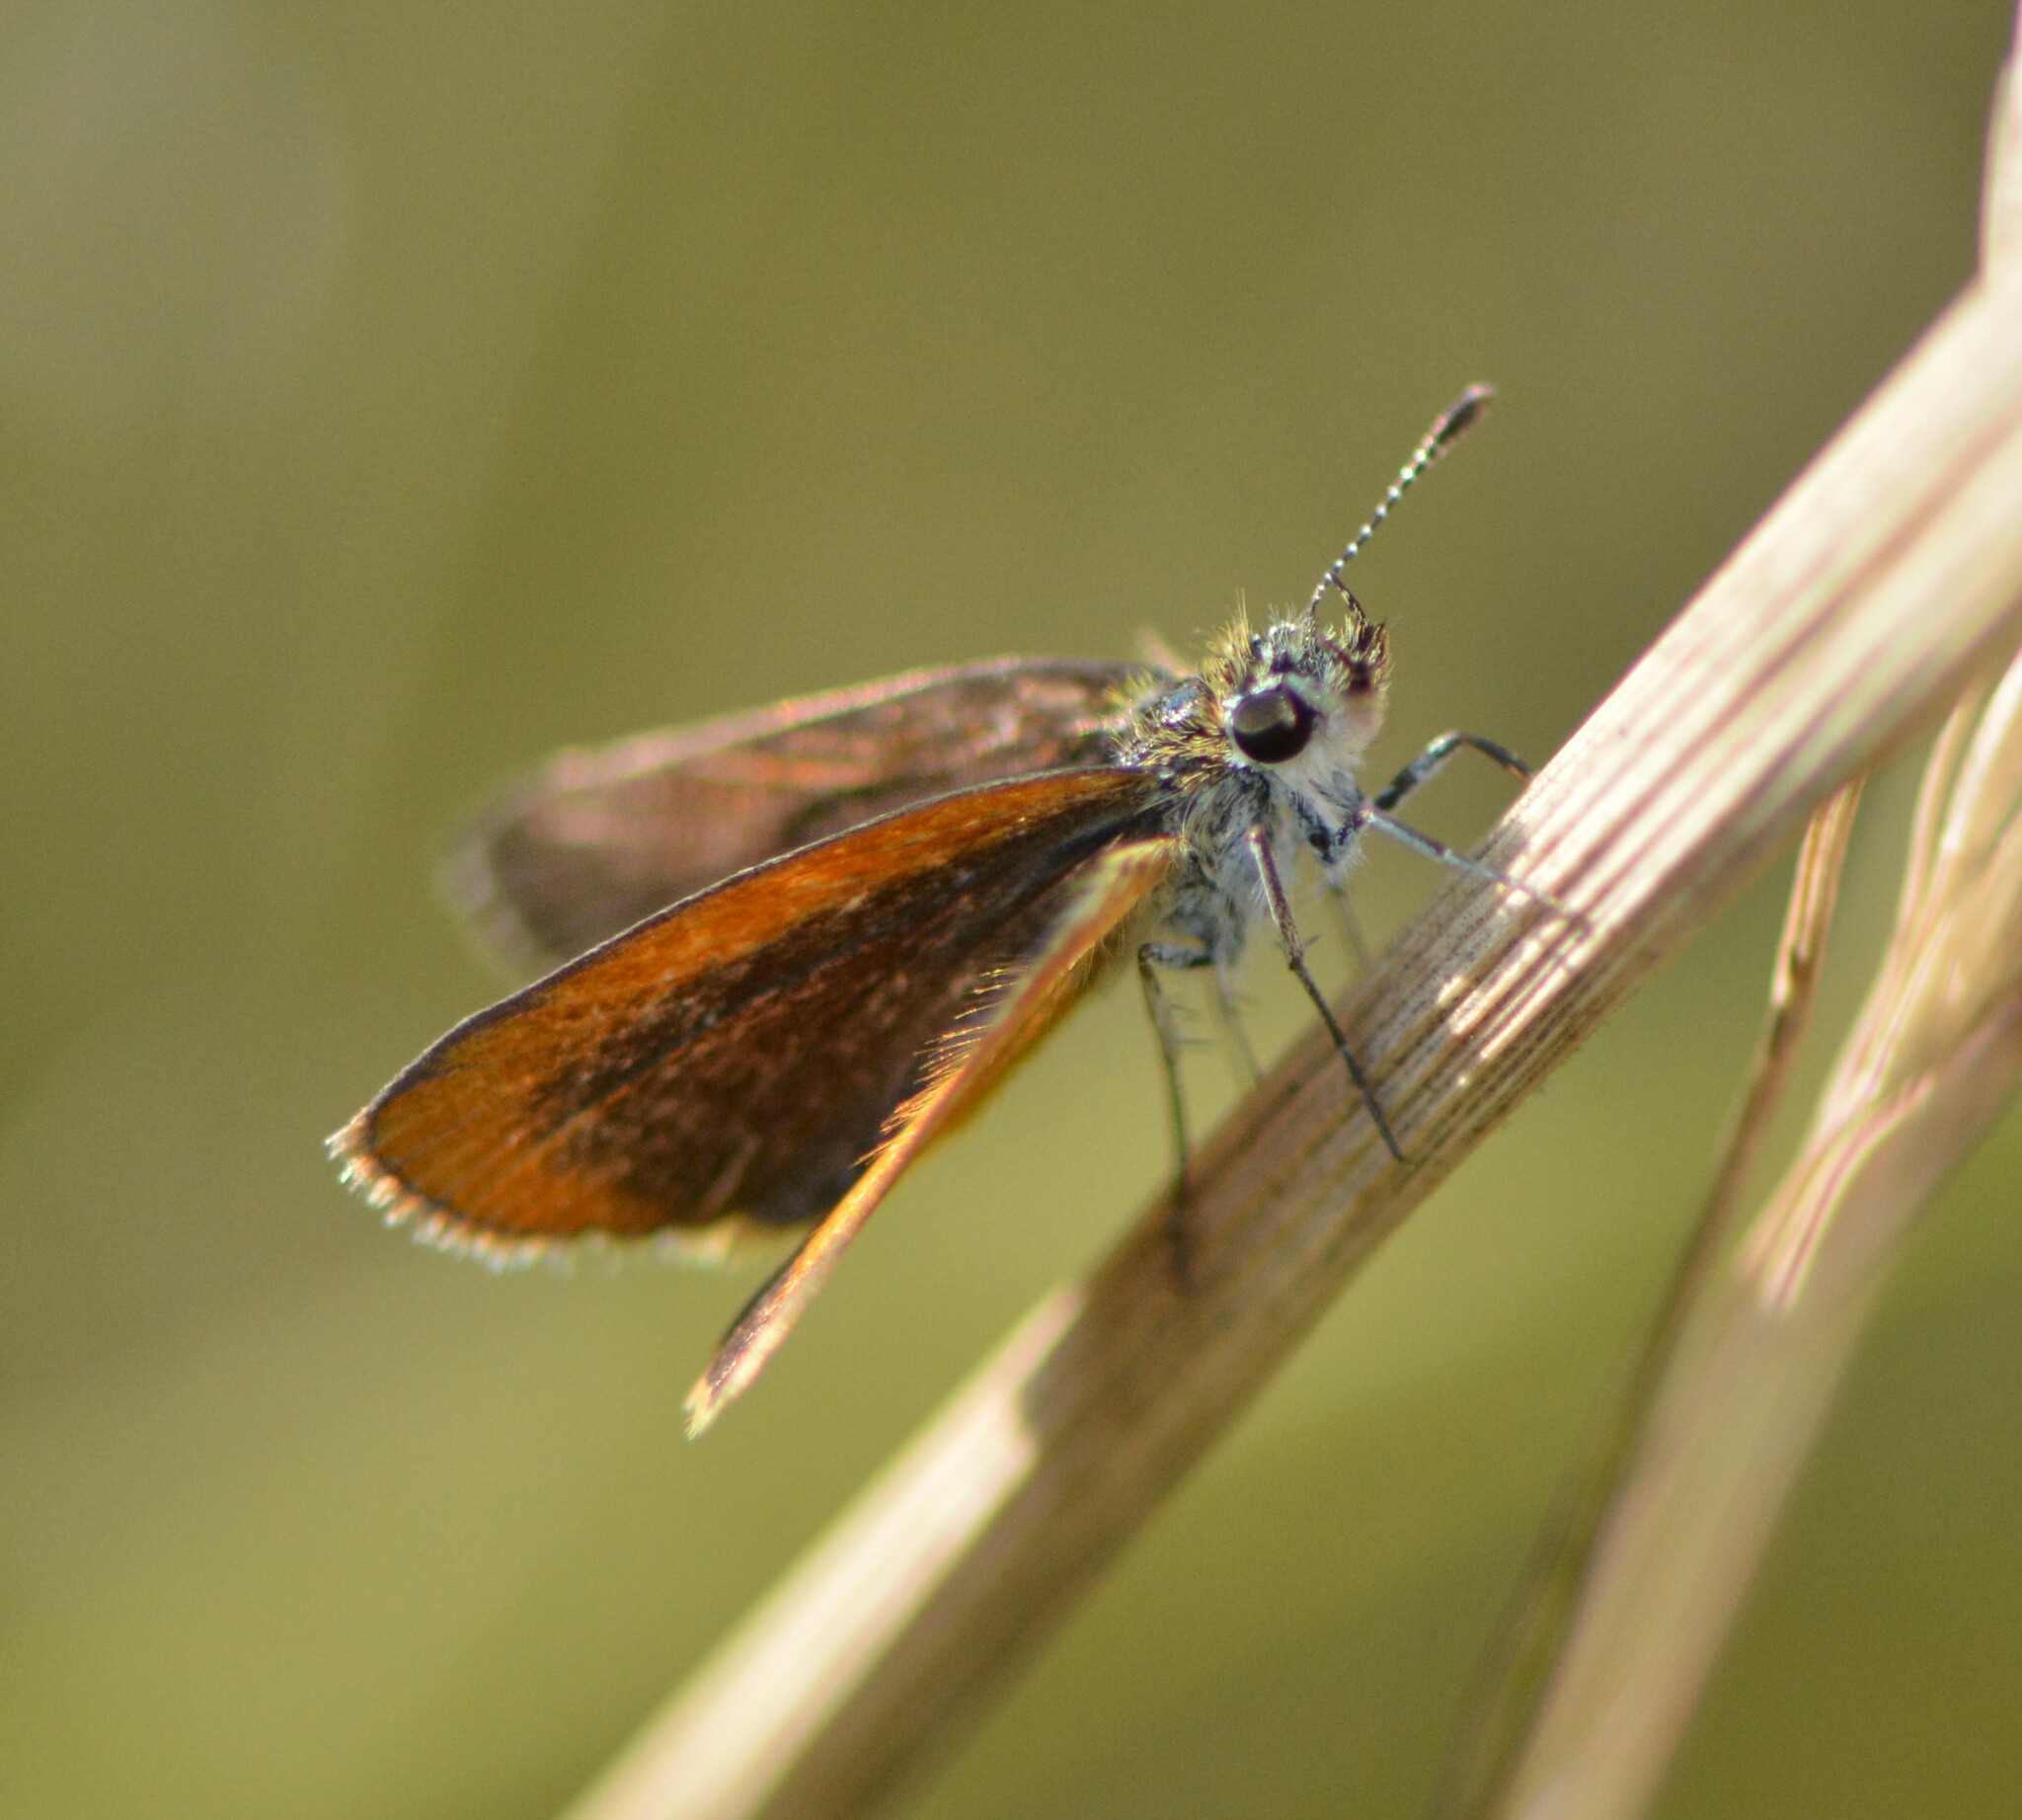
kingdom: Animalia
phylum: Arthropoda
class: Insecta
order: Lepidoptera
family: Hesperiidae
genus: Ancyloxypha
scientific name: Ancyloxypha numitor
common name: Least skipper
